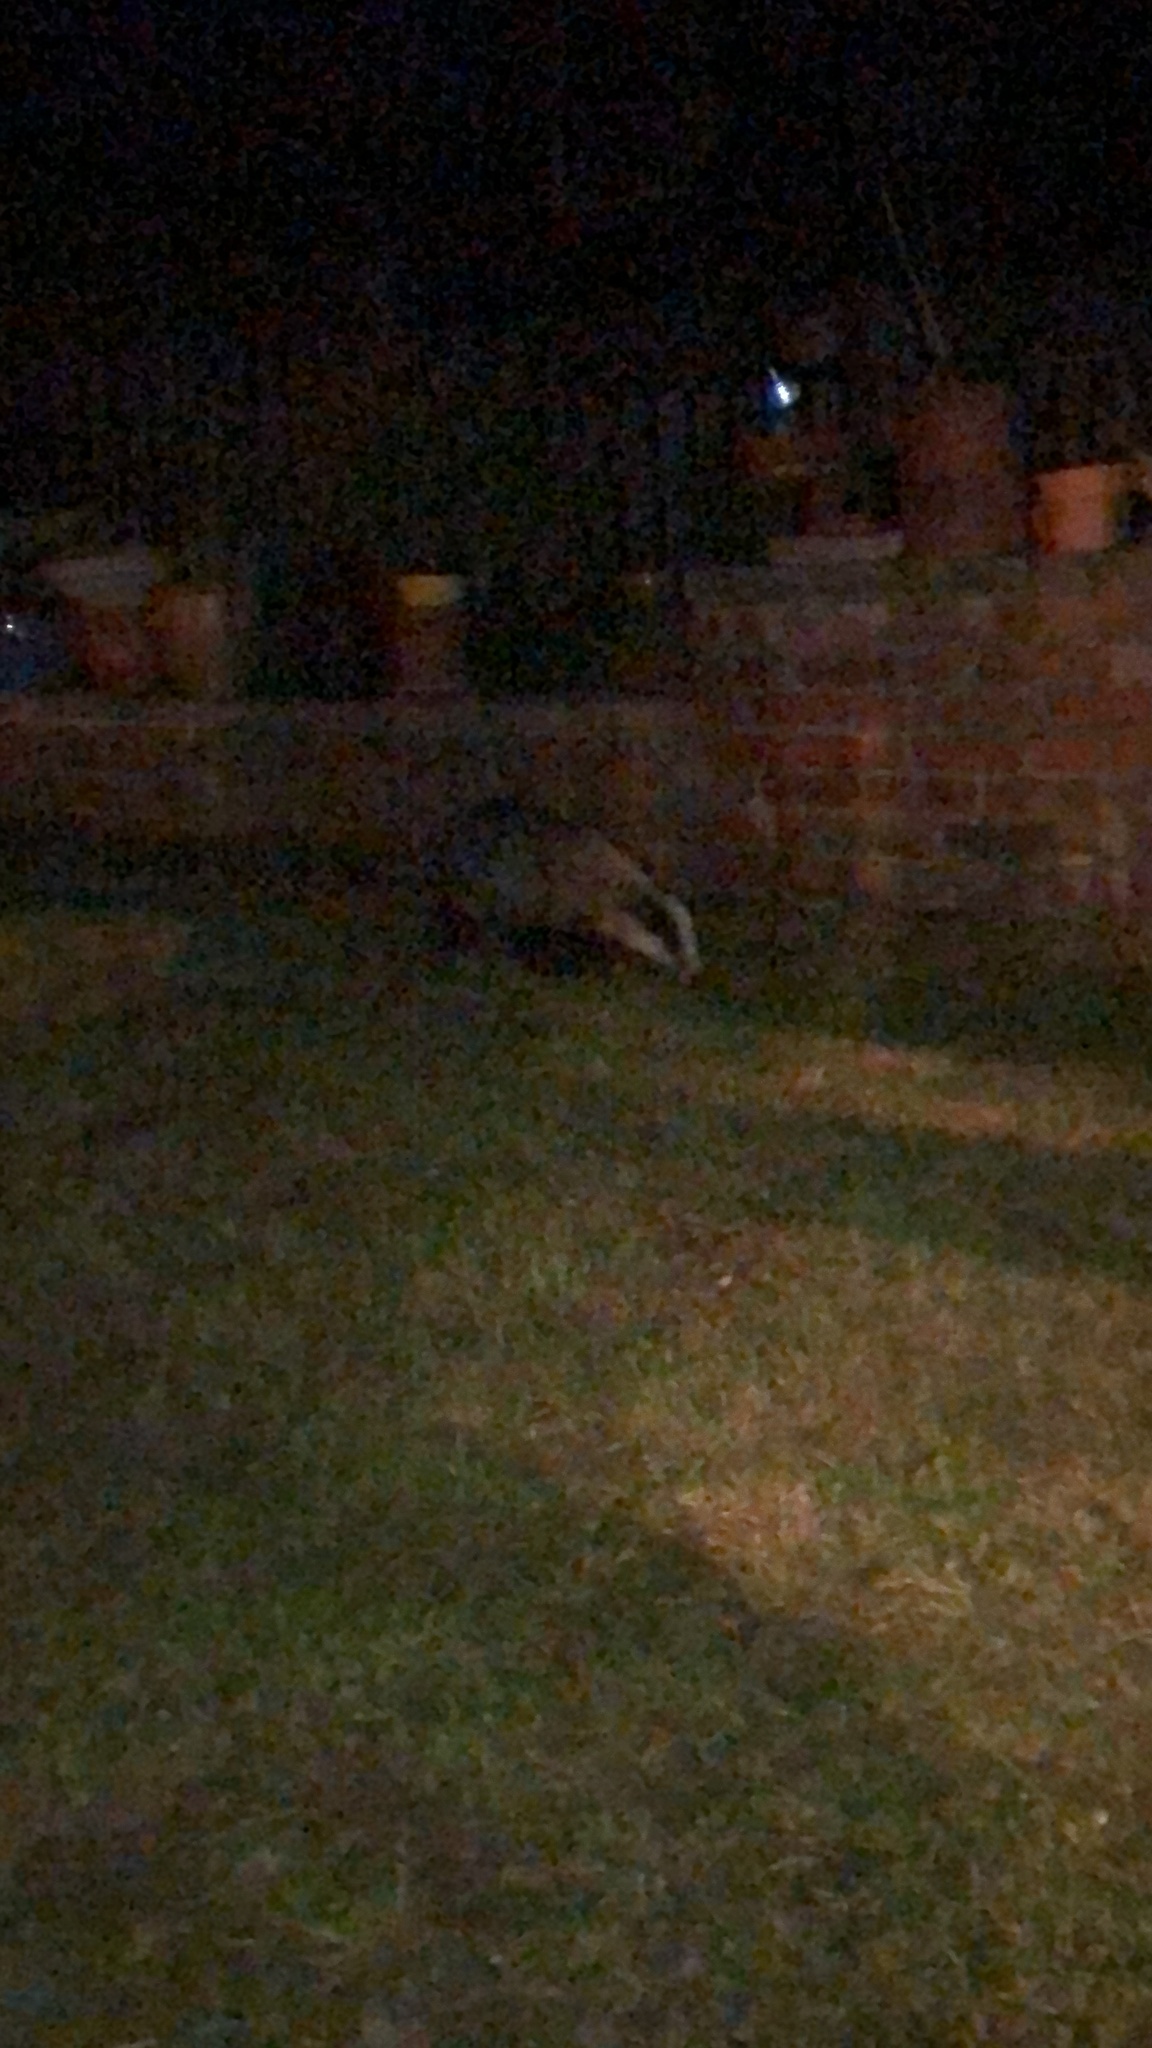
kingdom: Animalia
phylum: Chordata
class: Mammalia
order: Carnivora
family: Mustelidae
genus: Meles
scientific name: Meles meles
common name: Eurasian badger
